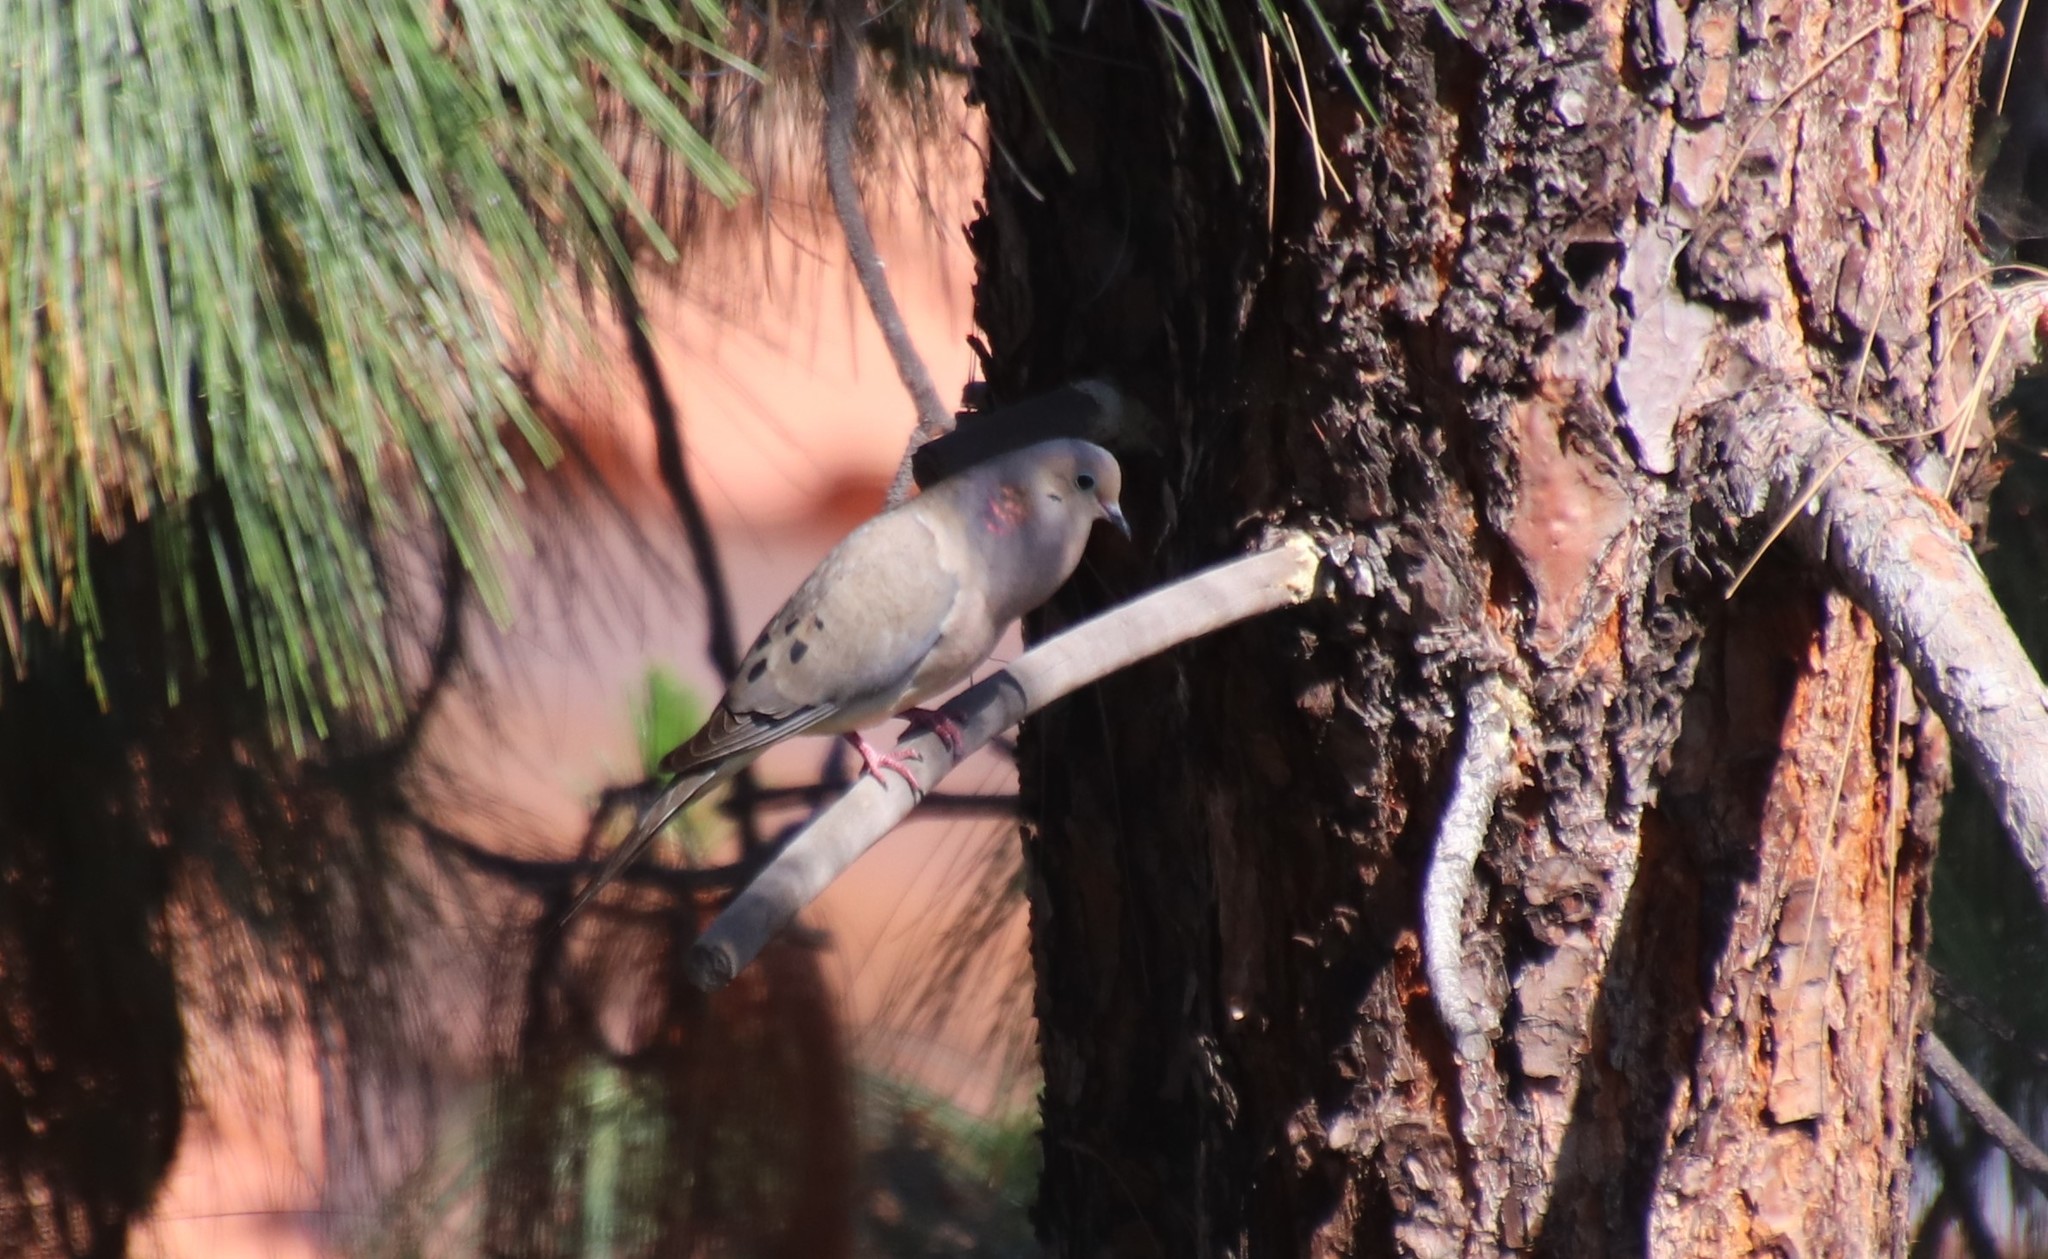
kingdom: Animalia
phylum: Chordata
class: Aves
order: Columbiformes
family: Columbidae
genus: Zenaida
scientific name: Zenaida macroura
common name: Mourning dove
